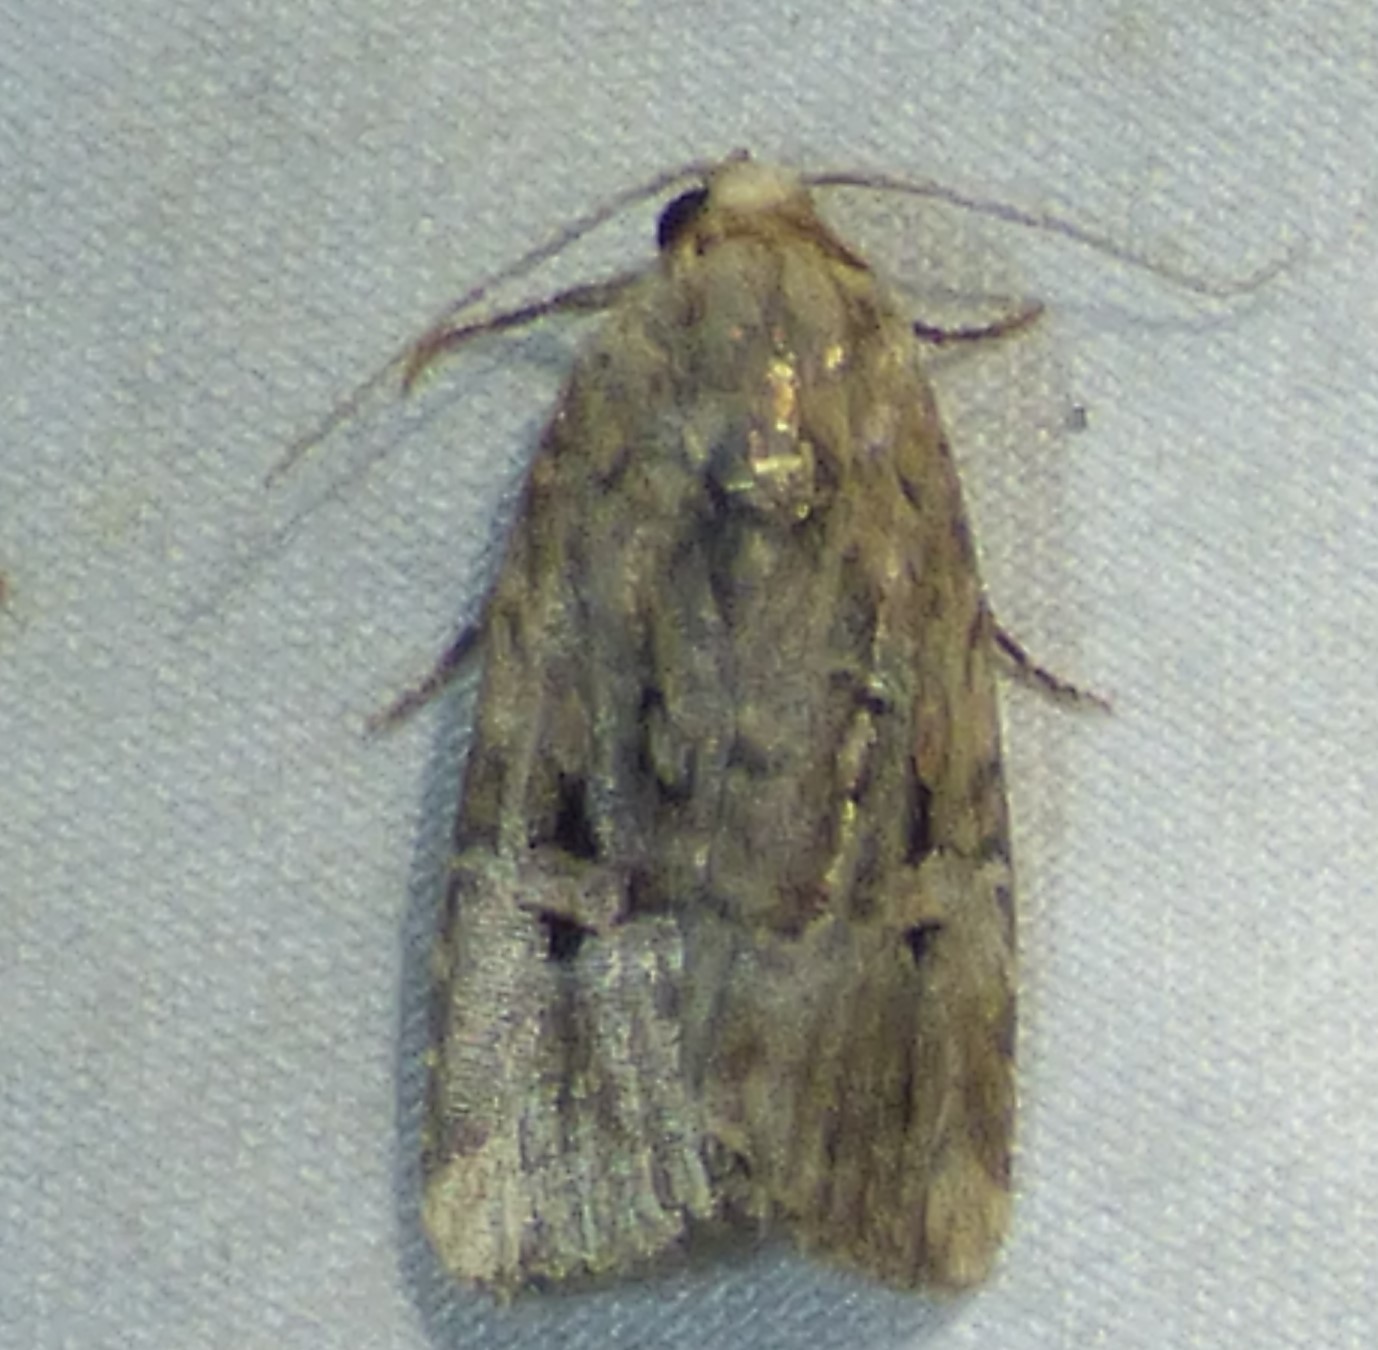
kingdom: Animalia
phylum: Arthropoda
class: Insecta
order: Lepidoptera
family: Noctuidae
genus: Elaphria
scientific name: Elaphria chalcedonia
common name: Chalcedony midget
